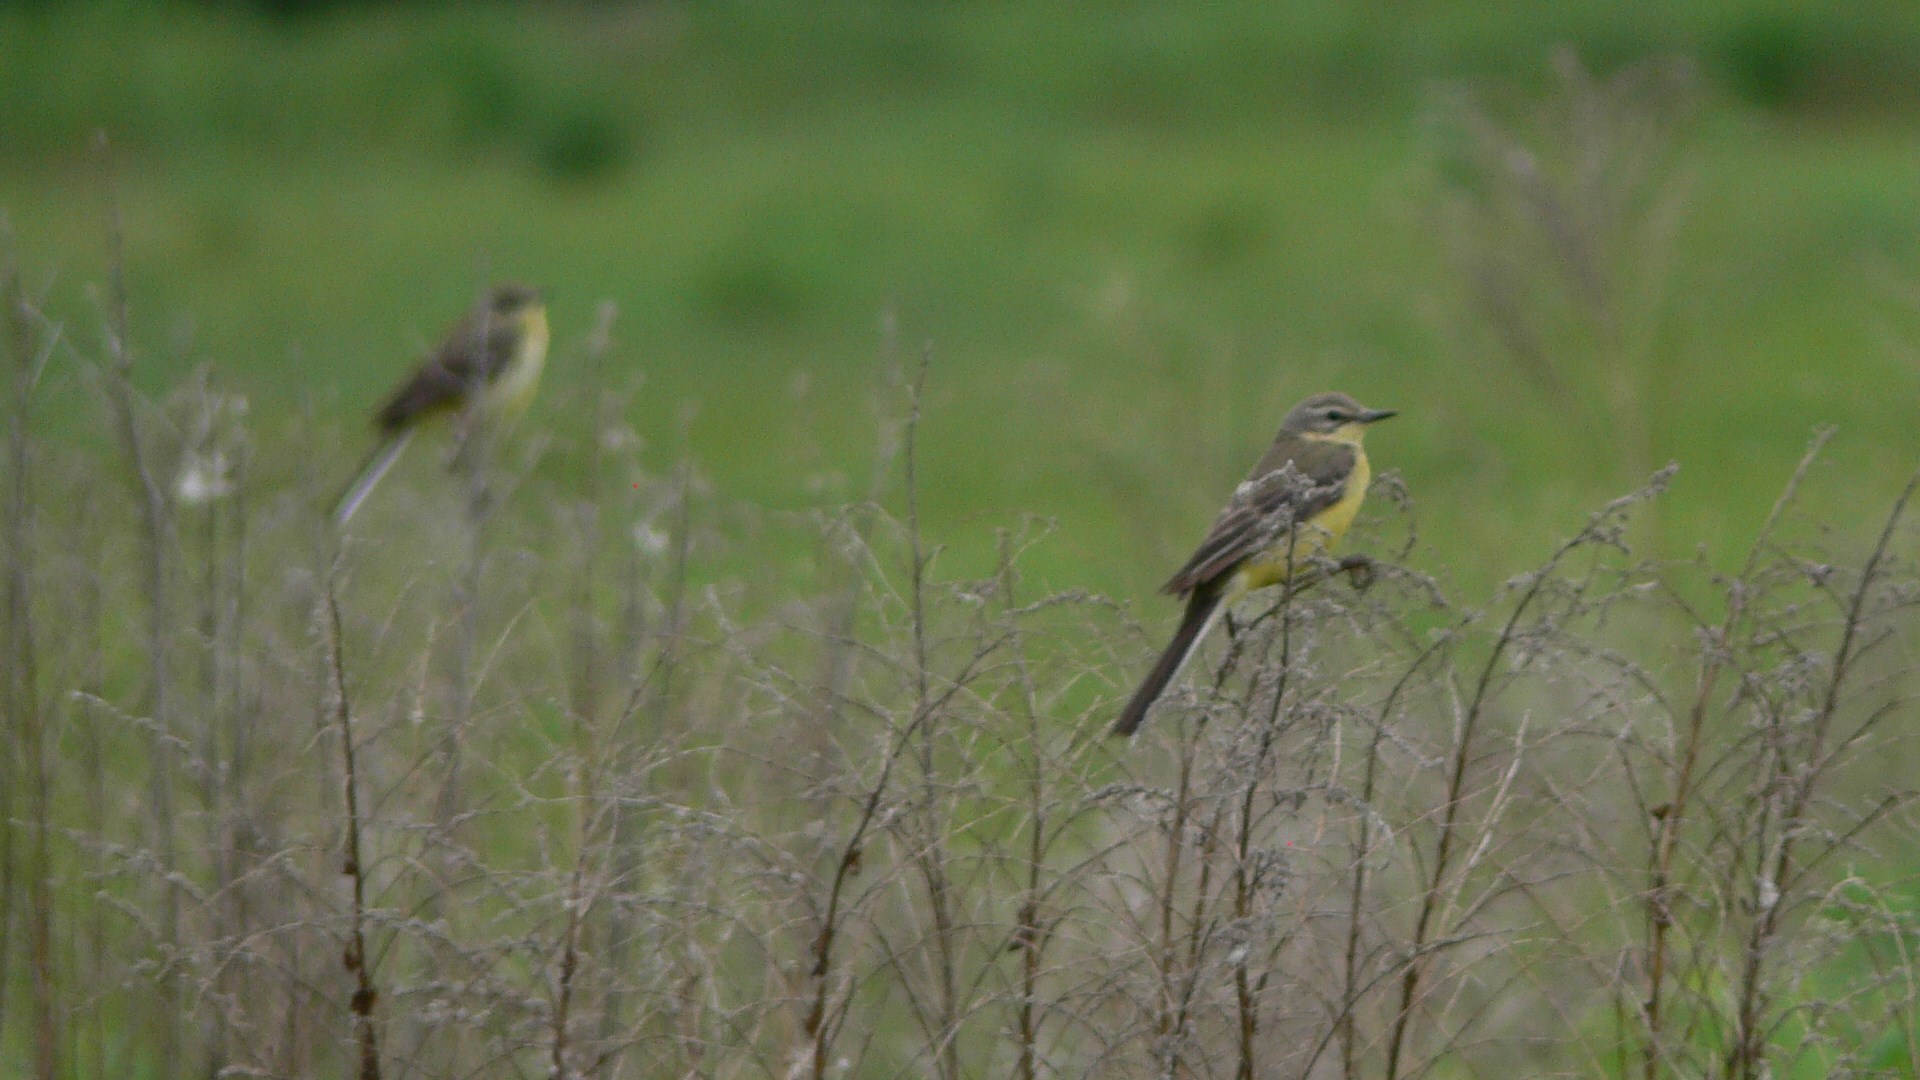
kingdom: Animalia
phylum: Chordata
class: Aves
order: Passeriformes
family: Motacillidae
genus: Motacilla
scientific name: Motacilla flava
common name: Western yellow wagtail
